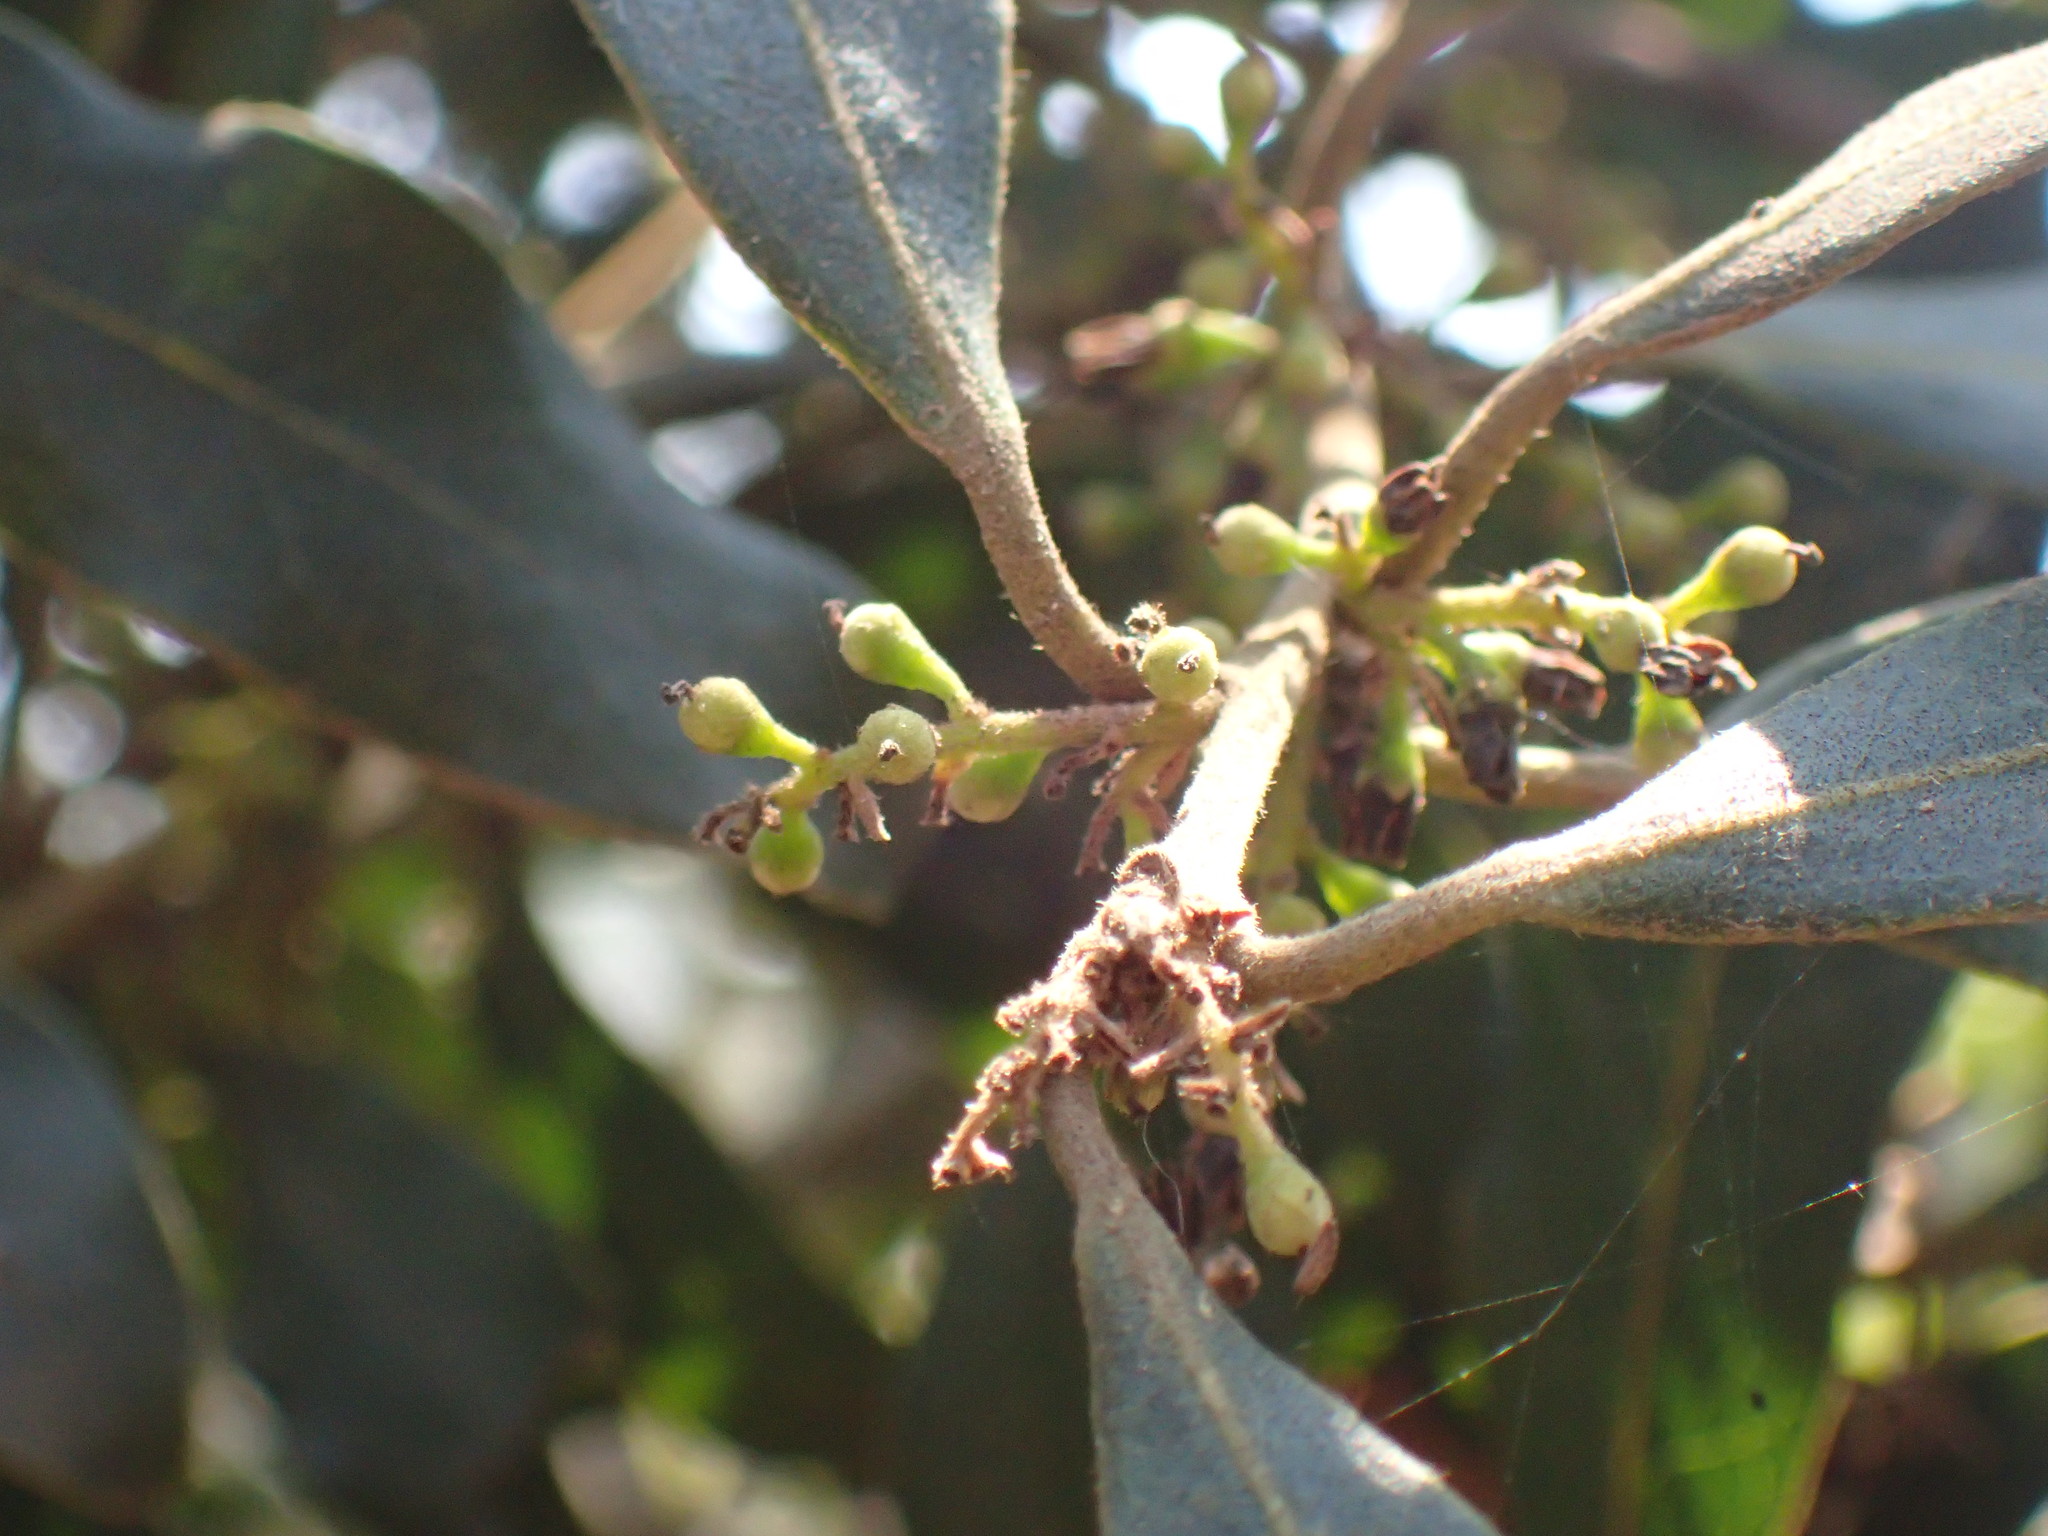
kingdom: Plantae
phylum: Tracheophyta
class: Magnoliopsida
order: Ericales
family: Ebenaceae
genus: Euclea
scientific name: Euclea natalensis
